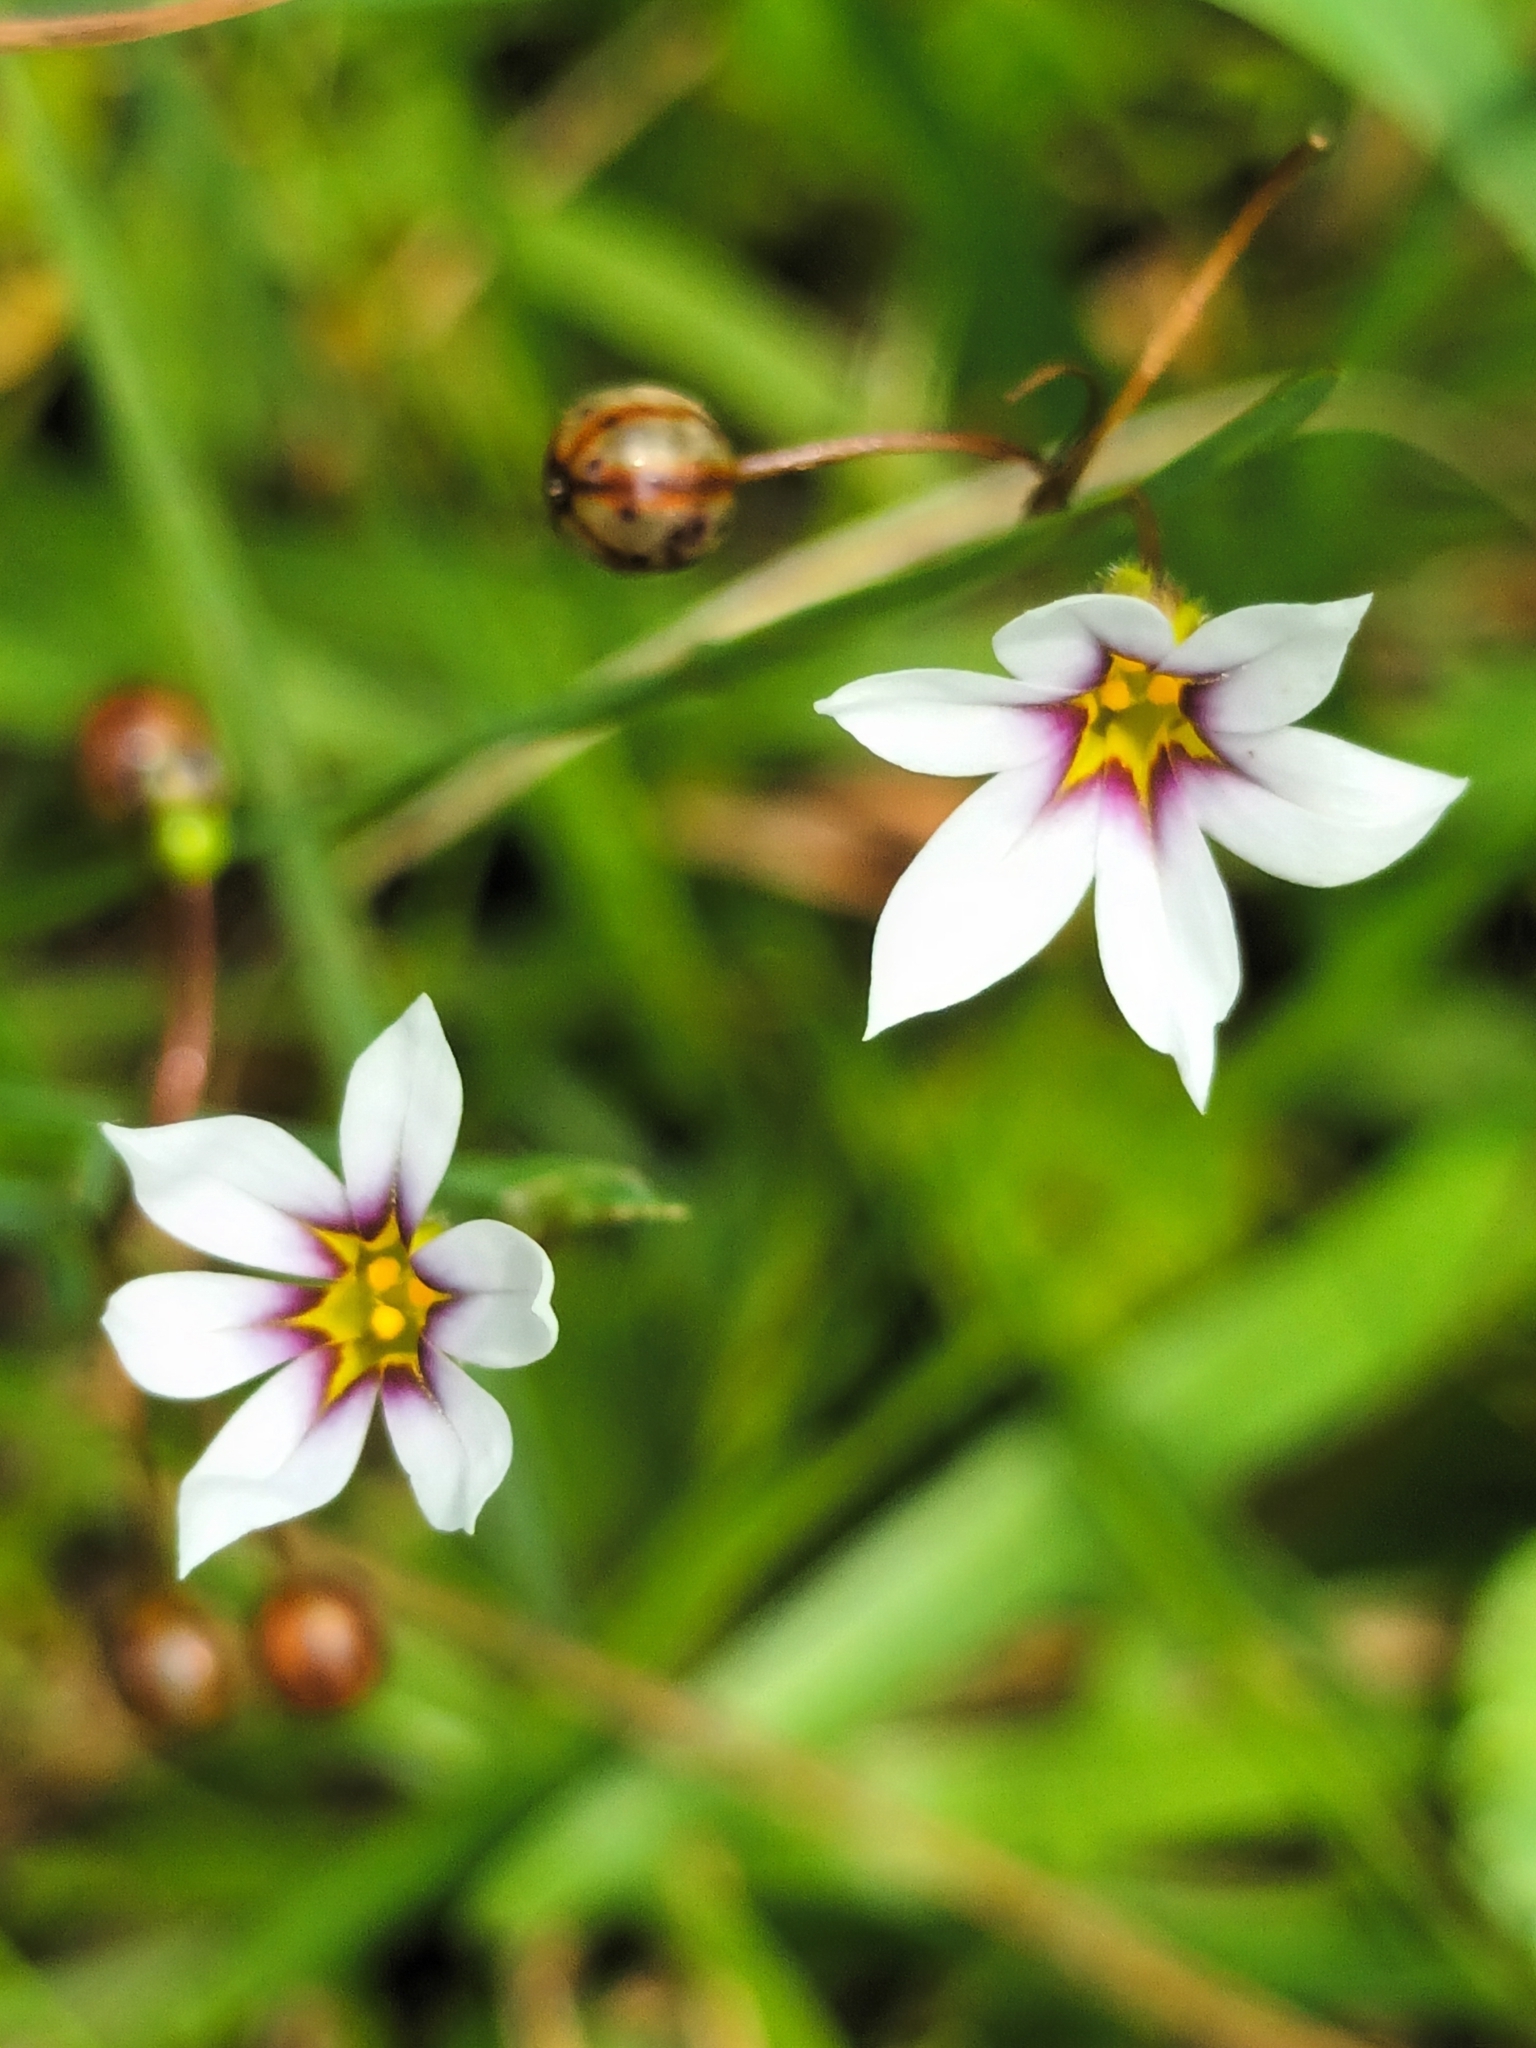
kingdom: Plantae
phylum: Tracheophyta
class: Liliopsida
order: Asparagales
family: Iridaceae
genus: Sisyrinchium
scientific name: Sisyrinchium micranthum
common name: Bermuda pigroot
